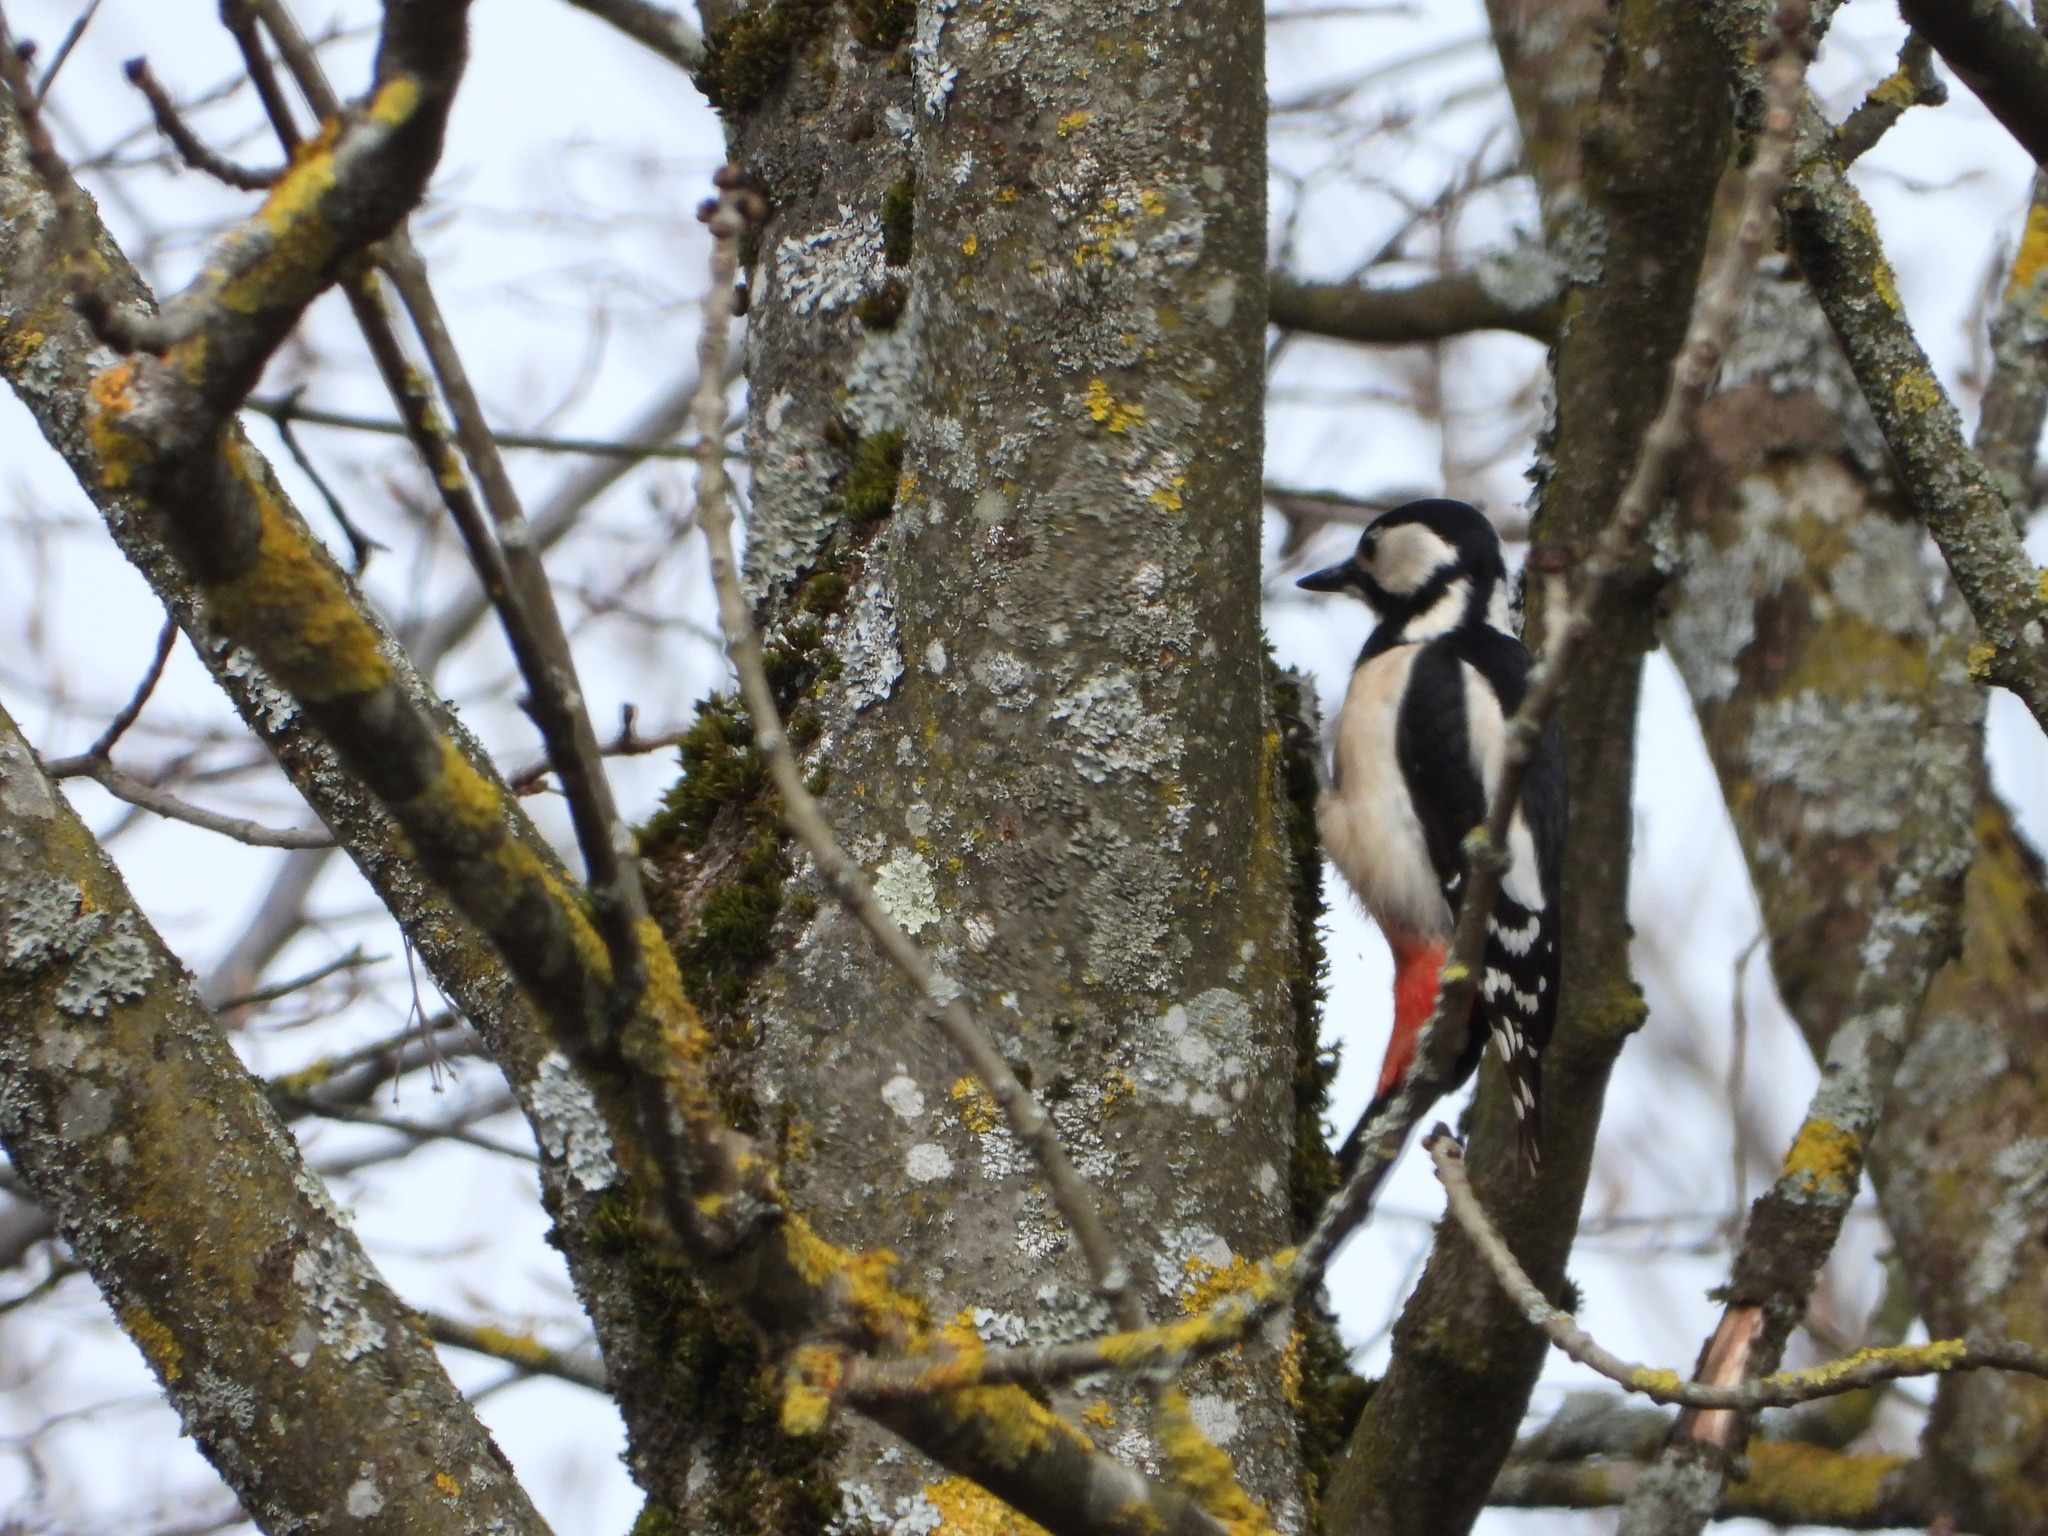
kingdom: Animalia
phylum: Chordata
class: Aves
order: Piciformes
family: Picidae
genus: Dendrocopos
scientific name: Dendrocopos major
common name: Great spotted woodpecker
